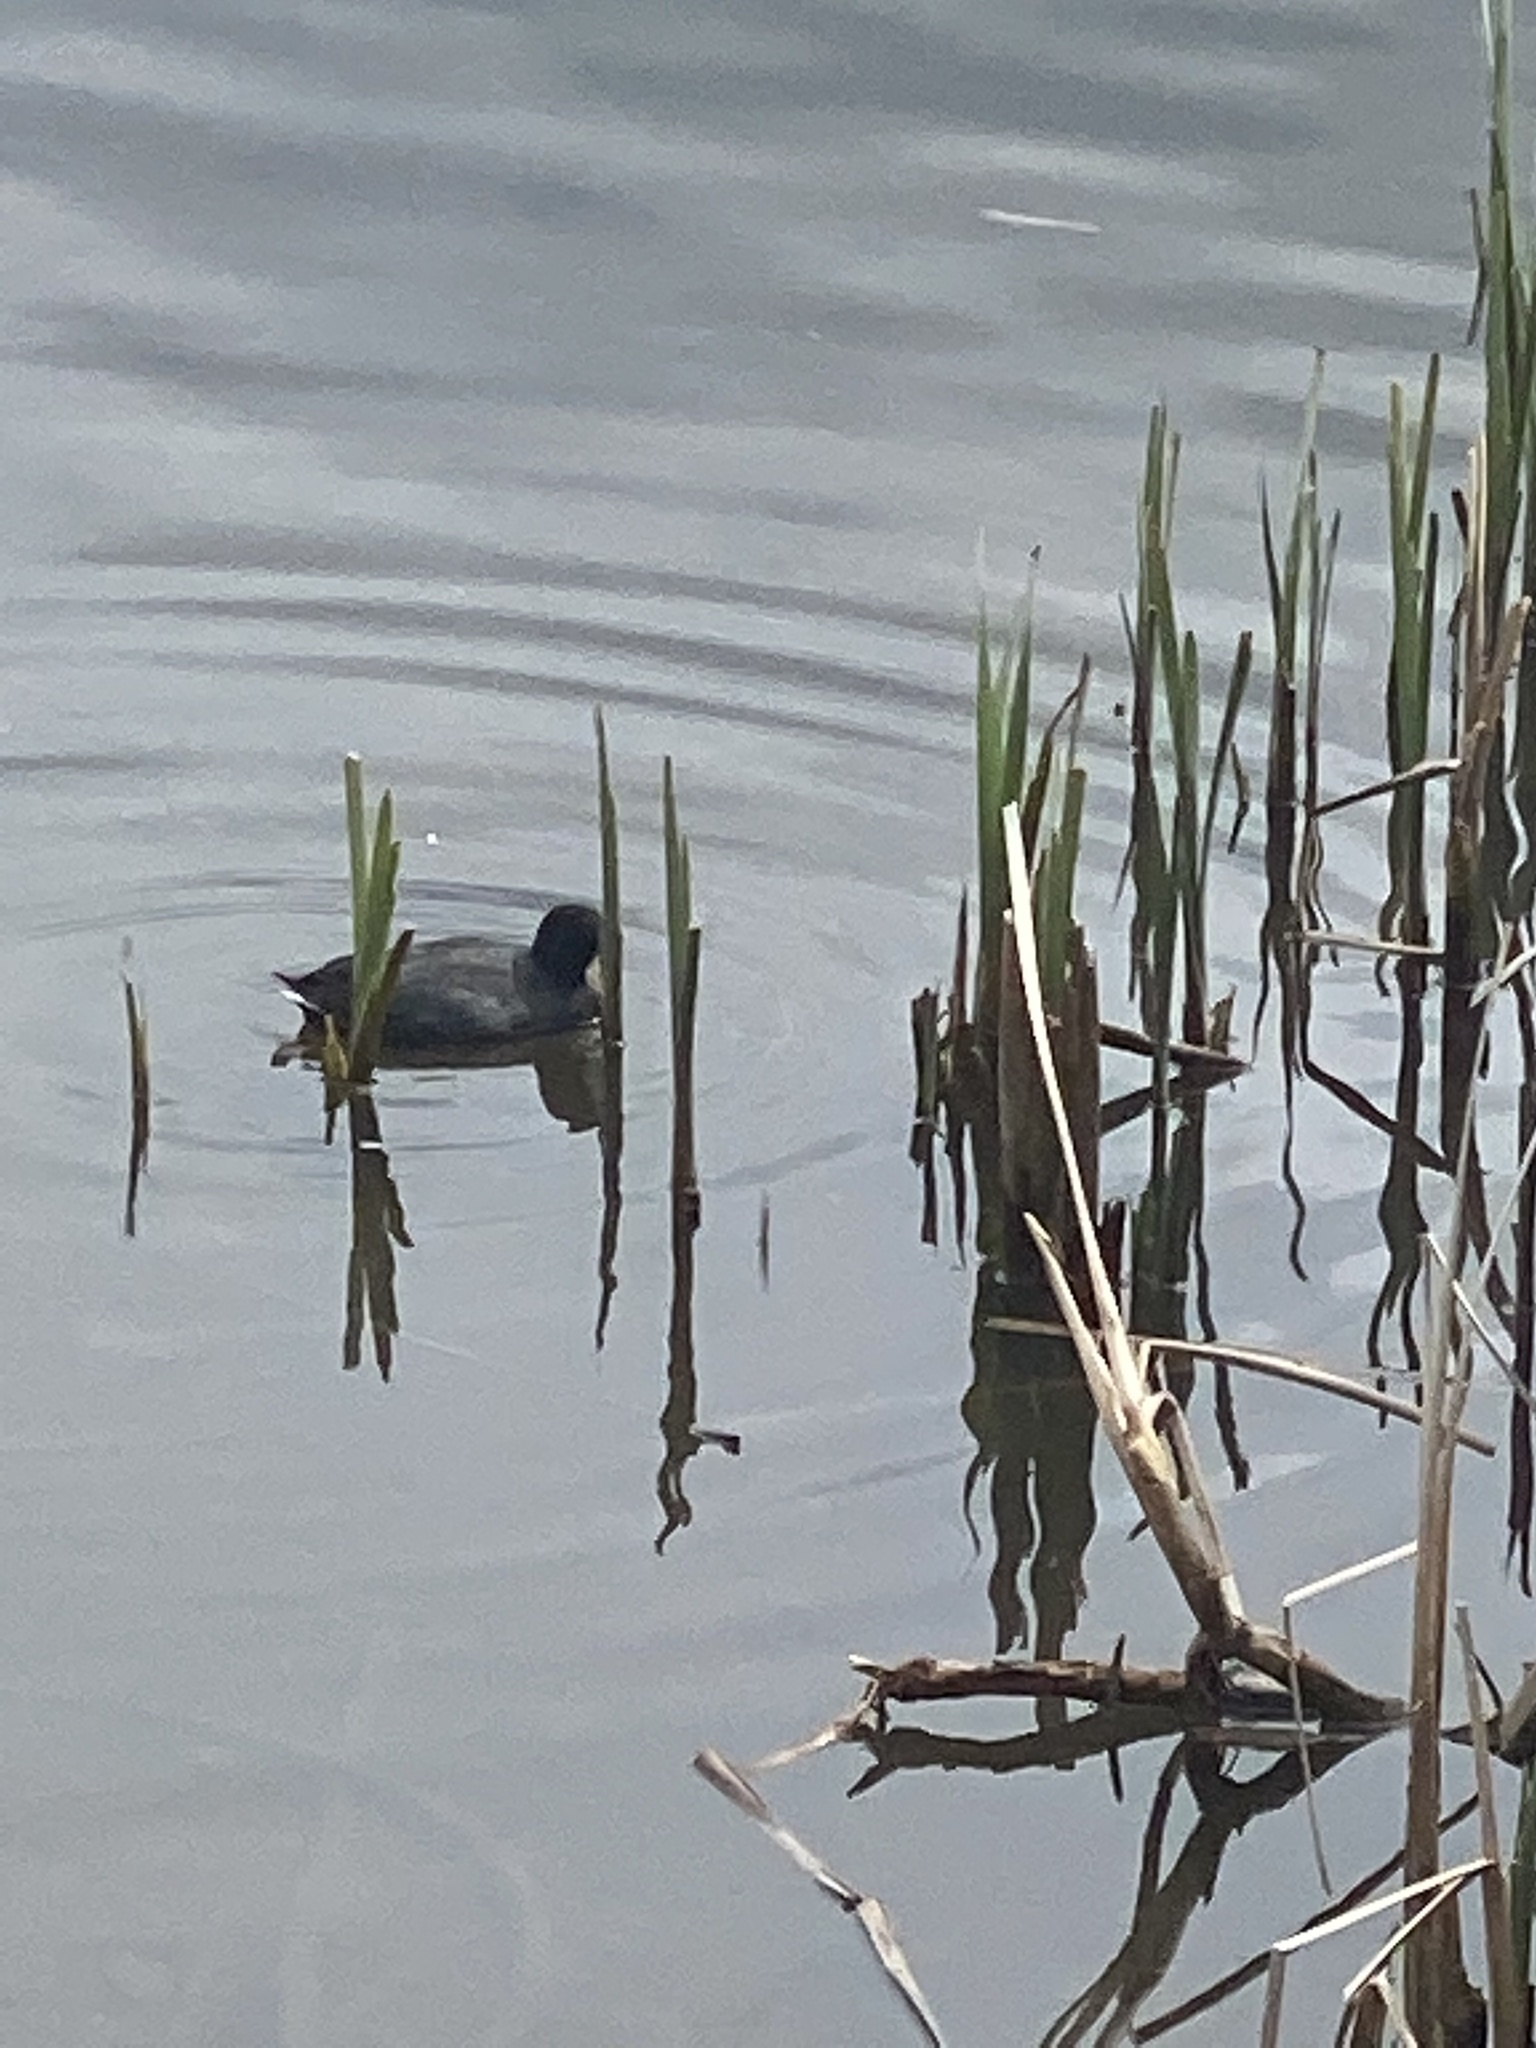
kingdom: Animalia
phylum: Chordata
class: Aves
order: Gruiformes
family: Rallidae
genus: Fulica
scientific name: Fulica americana
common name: American coot
